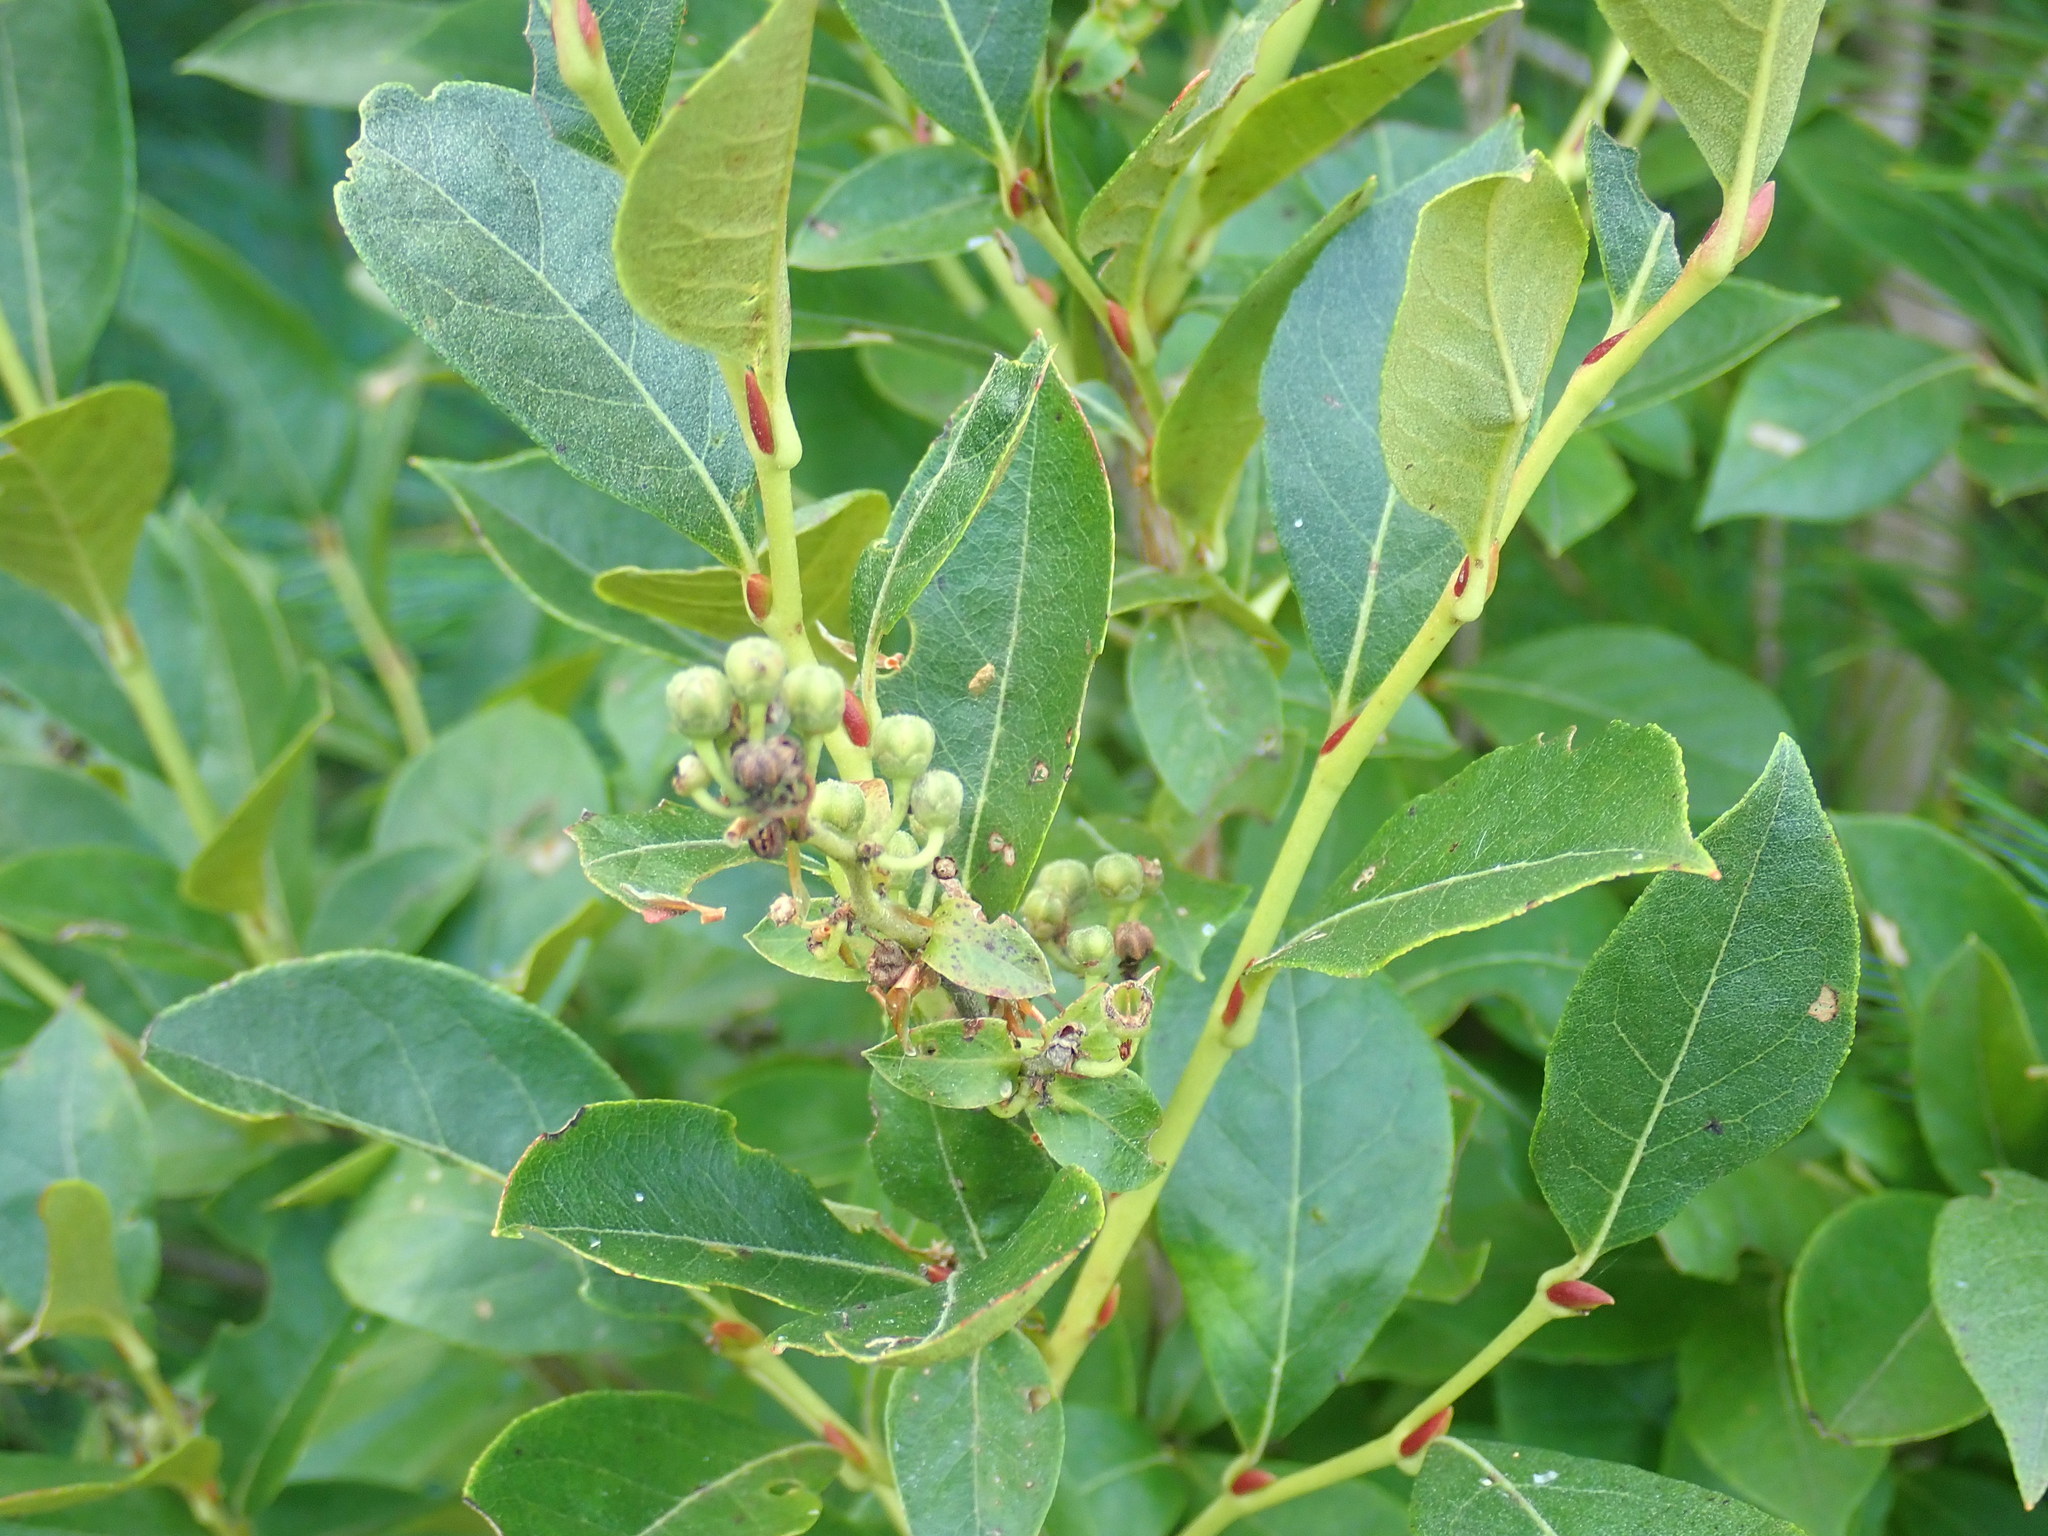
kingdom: Plantae
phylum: Tracheophyta
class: Magnoliopsida
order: Ericales
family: Ericaceae
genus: Lyonia
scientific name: Lyonia ligustrina
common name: Maleberry
